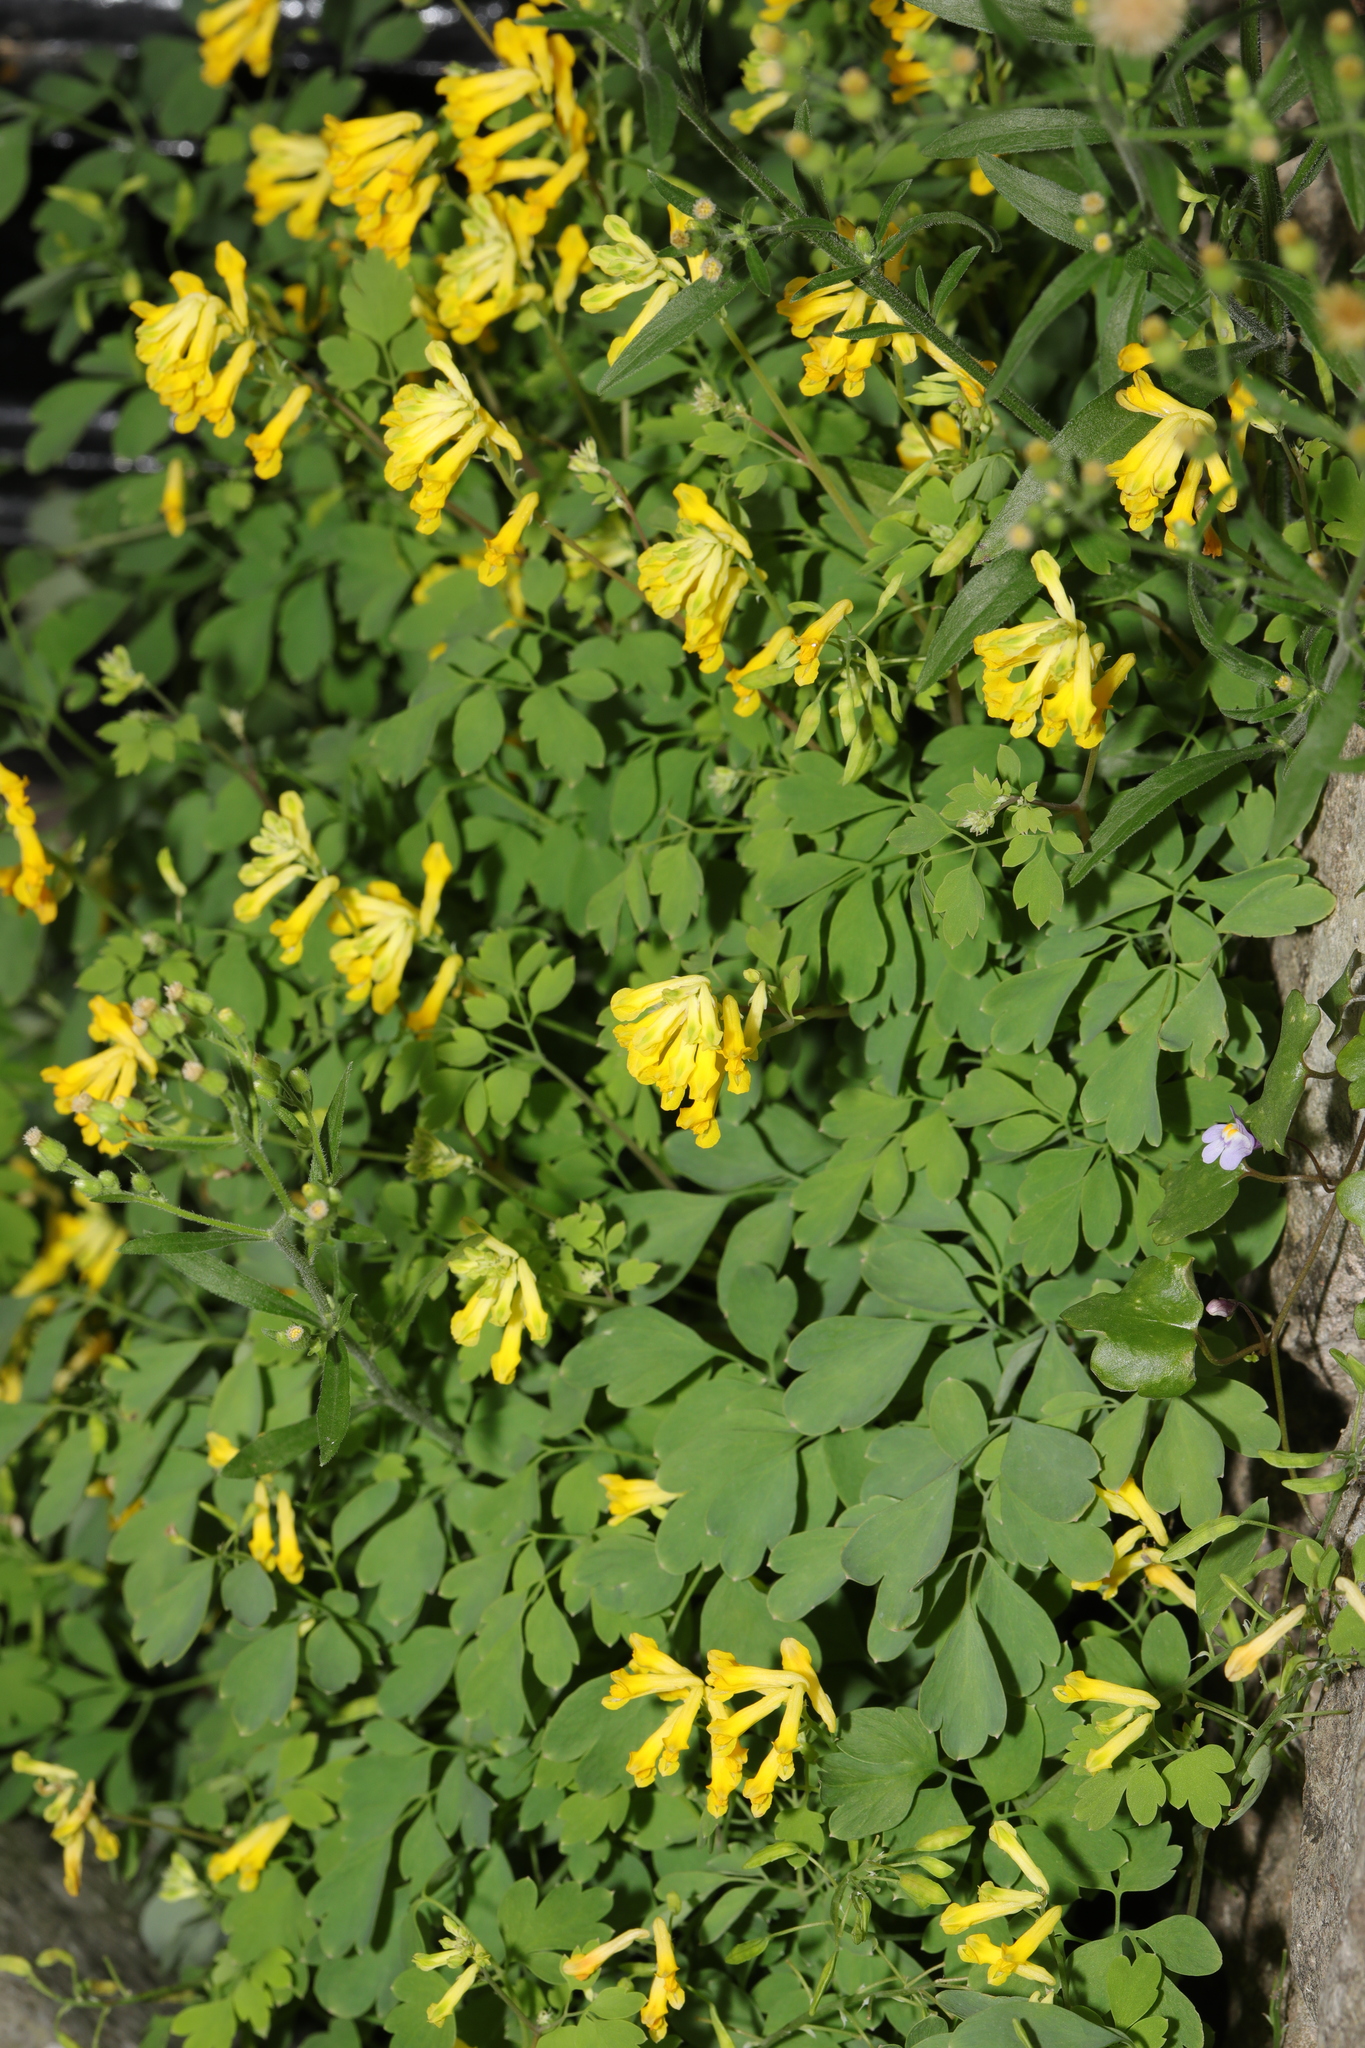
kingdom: Plantae
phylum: Tracheophyta
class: Magnoliopsida
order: Ranunculales
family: Papaveraceae
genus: Pseudofumaria
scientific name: Pseudofumaria lutea
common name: Yellow corydalis
